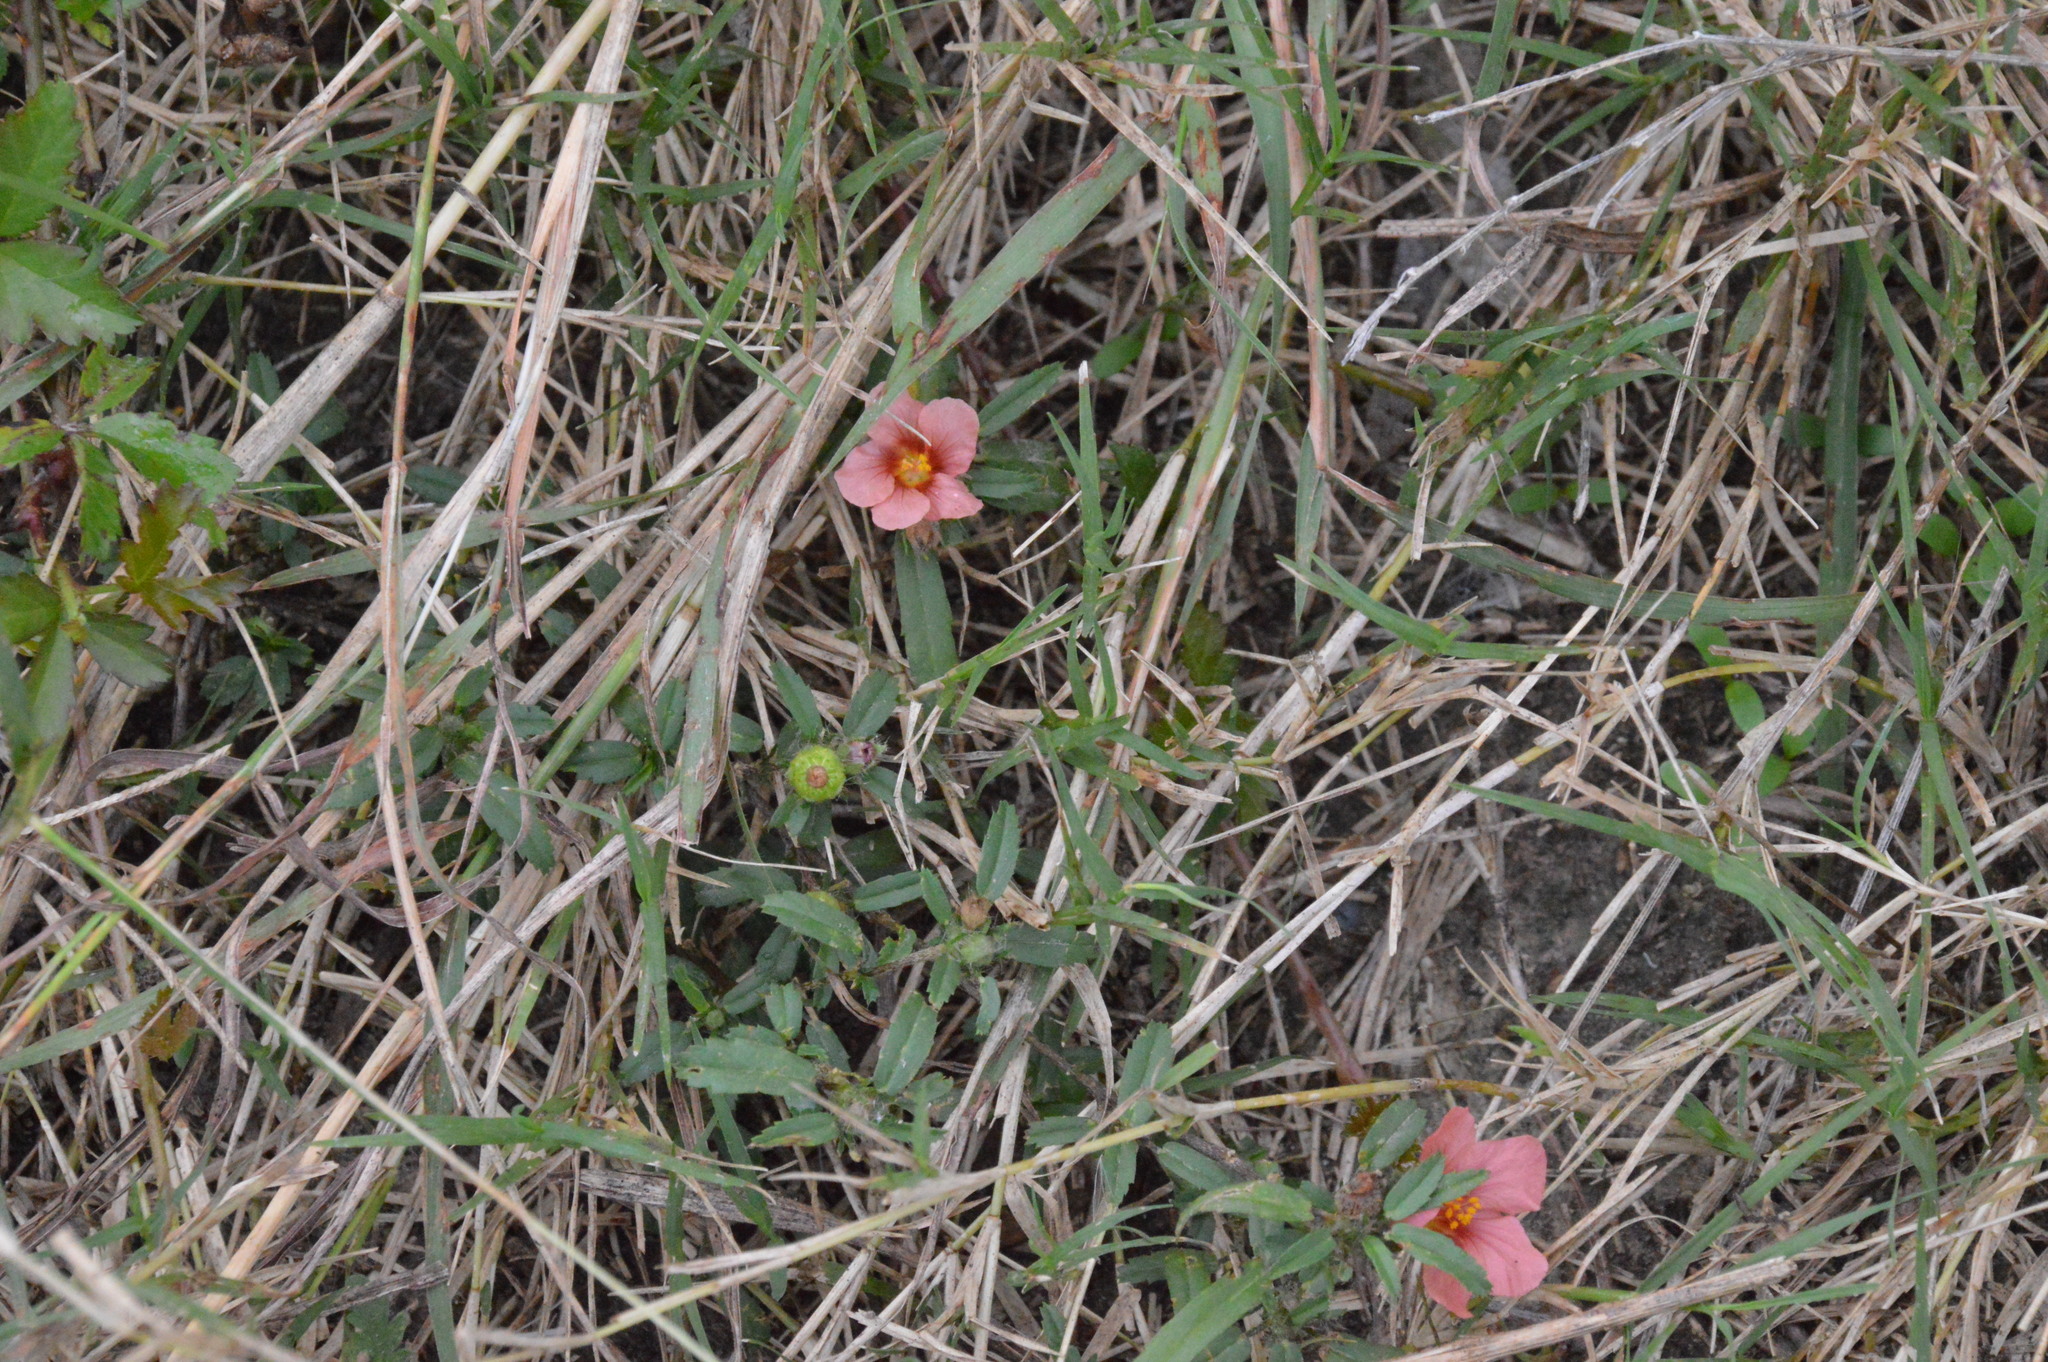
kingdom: Plantae
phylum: Tracheophyta
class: Magnoliopsida
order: Malvales
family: Malvaceae
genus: Sida
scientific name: Sida ciliaris
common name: Bracted fanpetals
